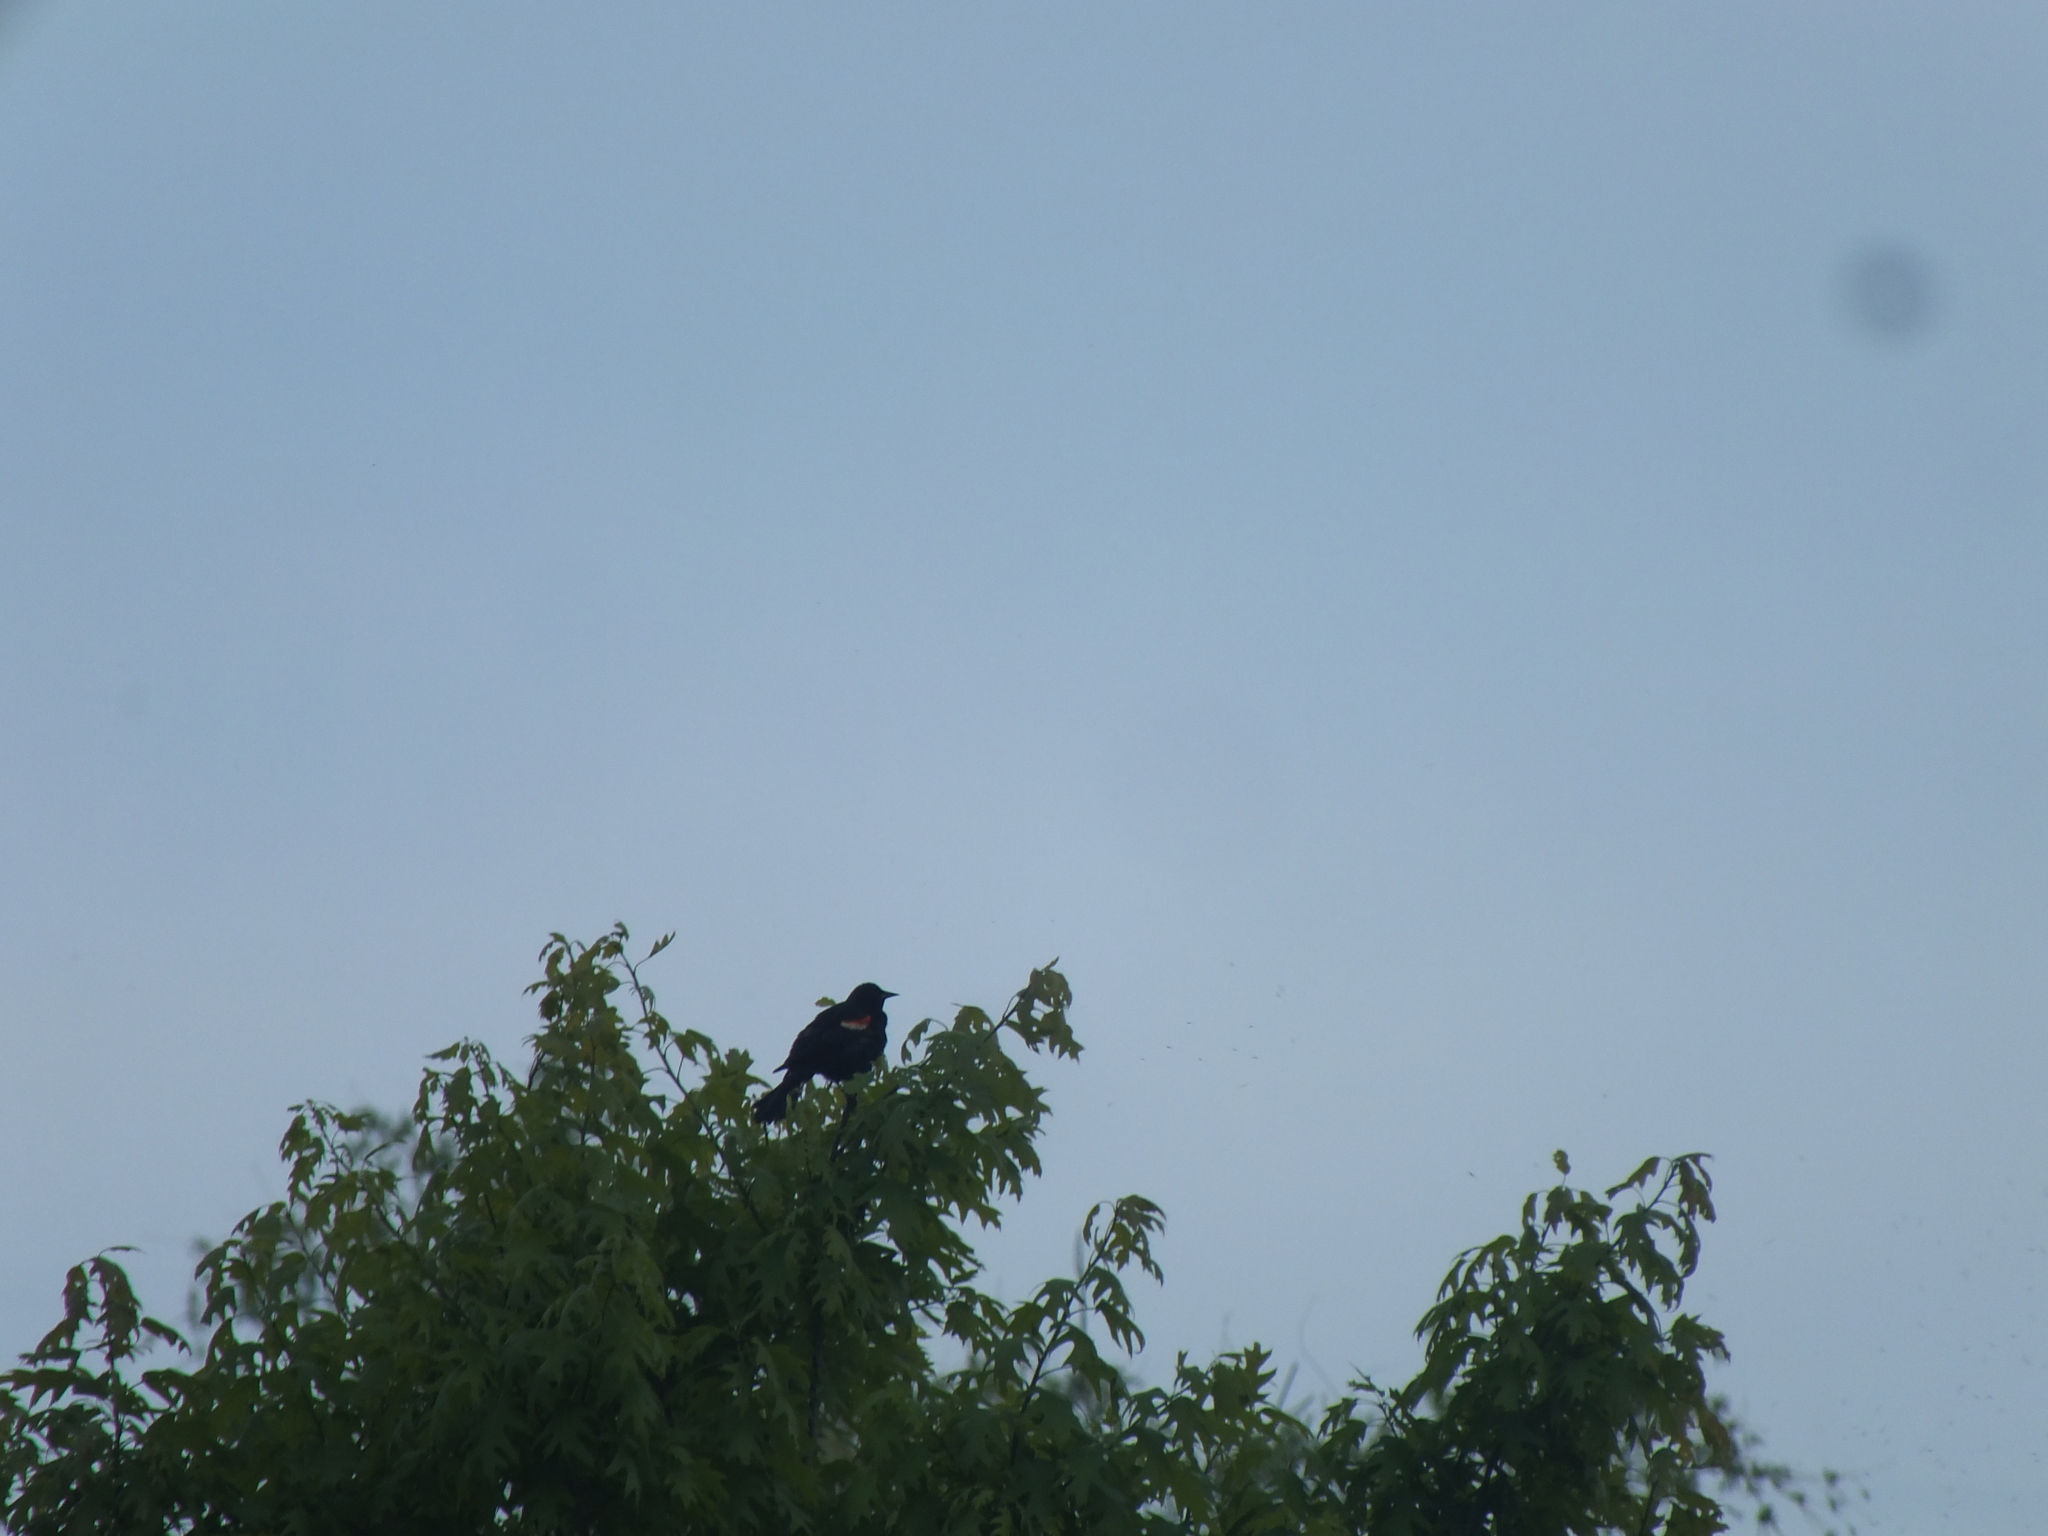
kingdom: Animalia
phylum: Chordata
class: Aves
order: Passeriformes
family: Icteridae
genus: Agelaius
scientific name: Agelaius phoeniceus
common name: Red-winged blackbird
